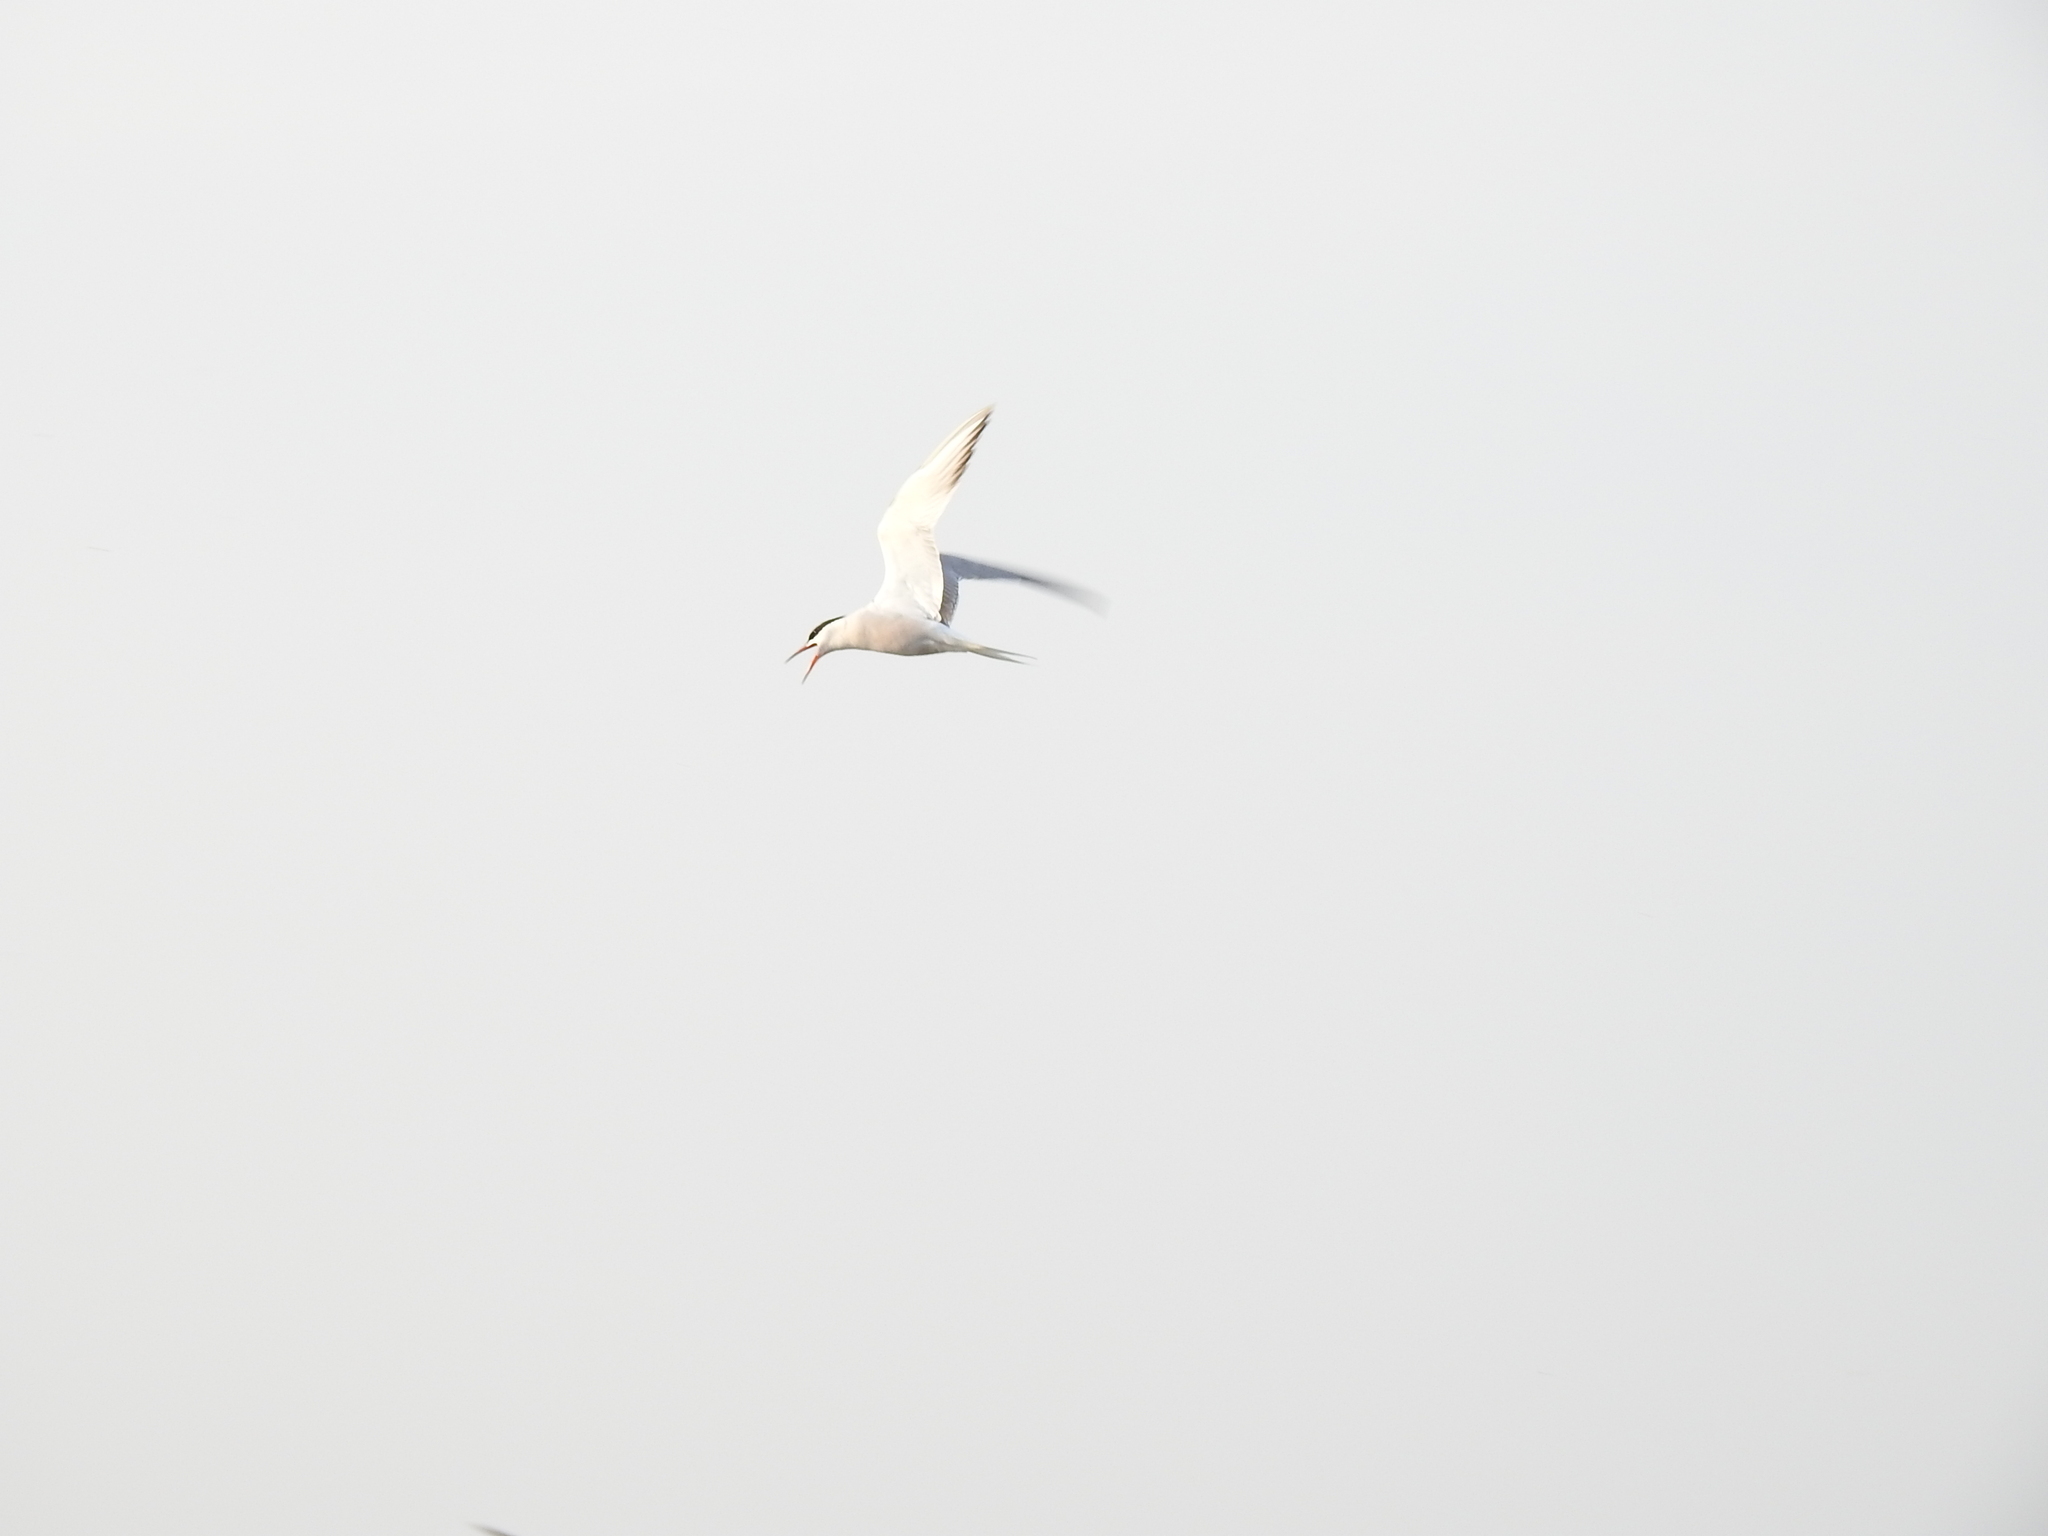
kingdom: Animalia
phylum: Chordata
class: Aves
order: Charadriiformes
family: Laridae
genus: Sterna
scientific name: Sterna hirundo
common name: Common tern
